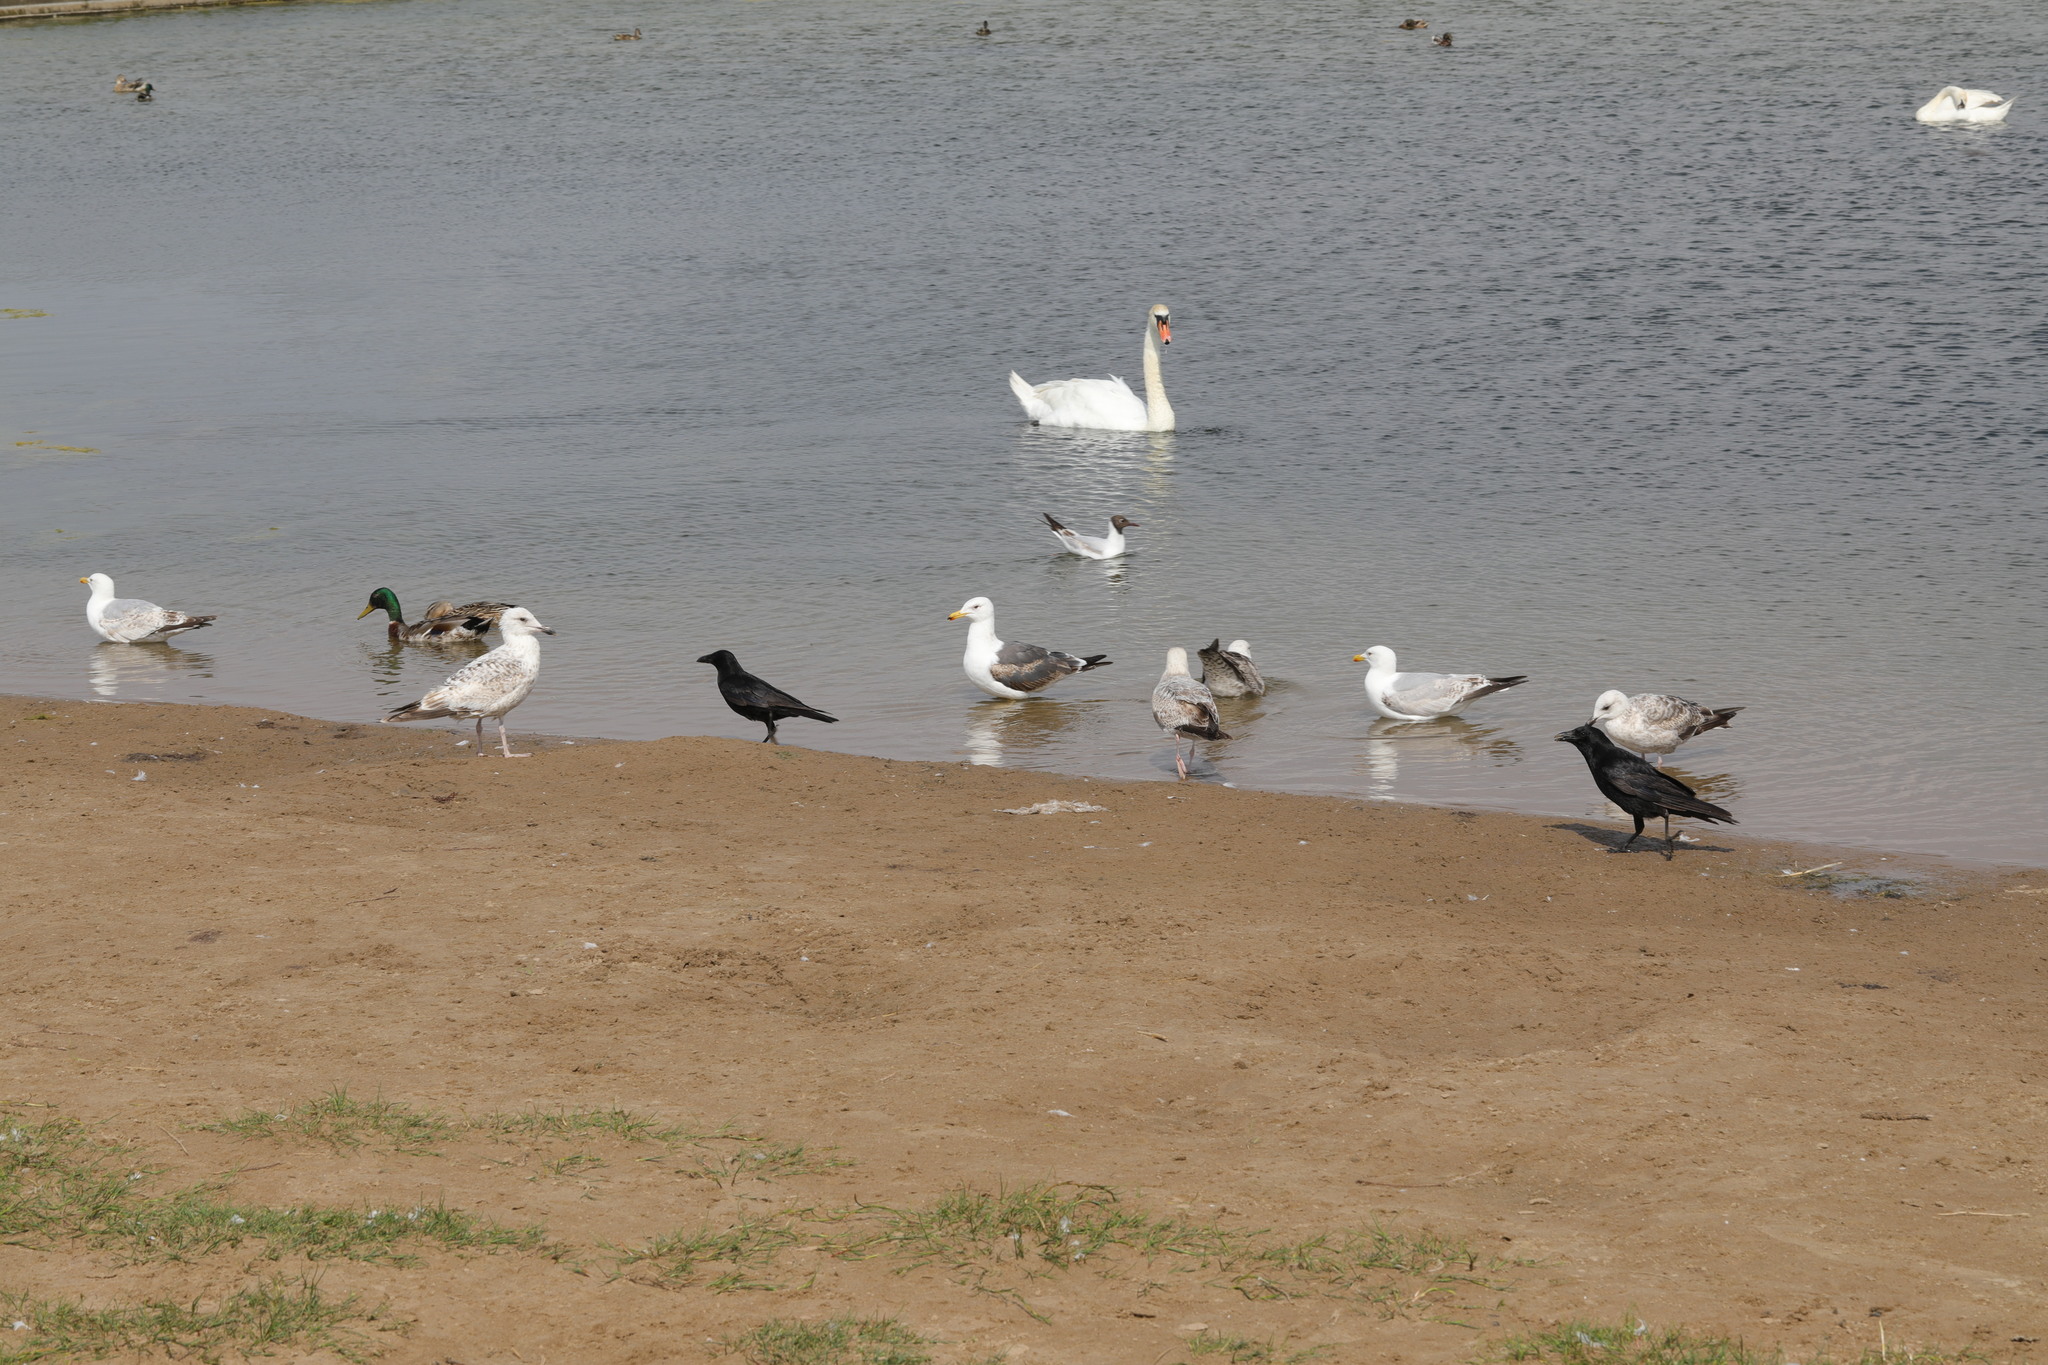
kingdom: Animalia
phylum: Chordata
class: Aves
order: Anseriformes
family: Anatidae
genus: Cygnus
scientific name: Cygnus olor
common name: Mute swan
